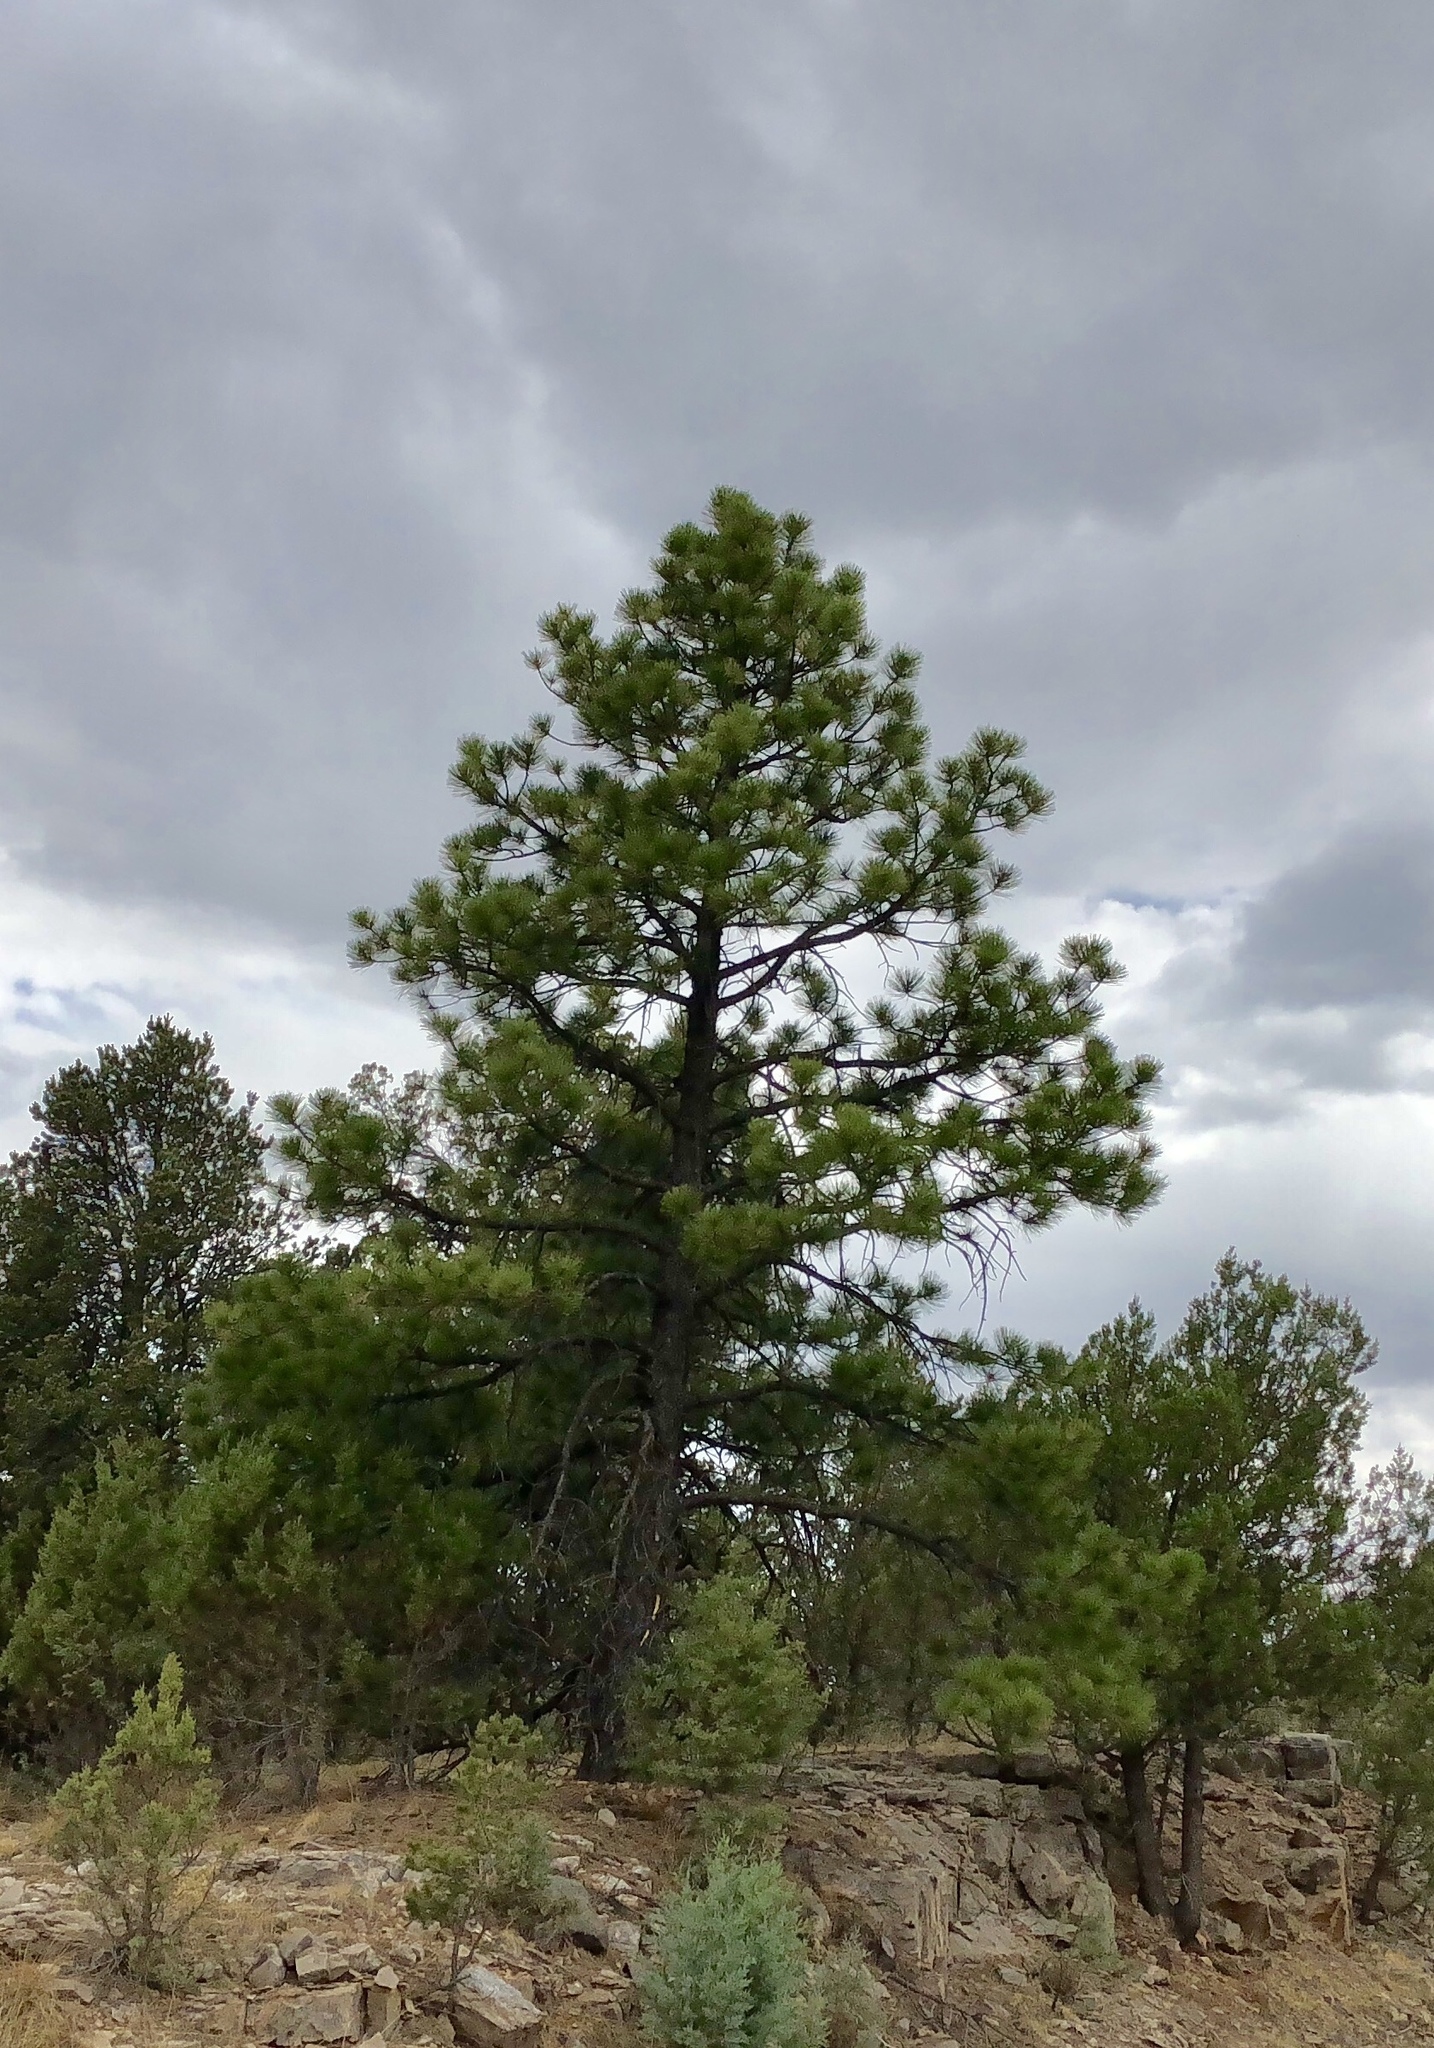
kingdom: Plantae
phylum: Tracheophyta
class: Pinopsida
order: Pinales
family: Pinaceae
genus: Pinus
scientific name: Pinus ponderosa
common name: Western yellow-pine
